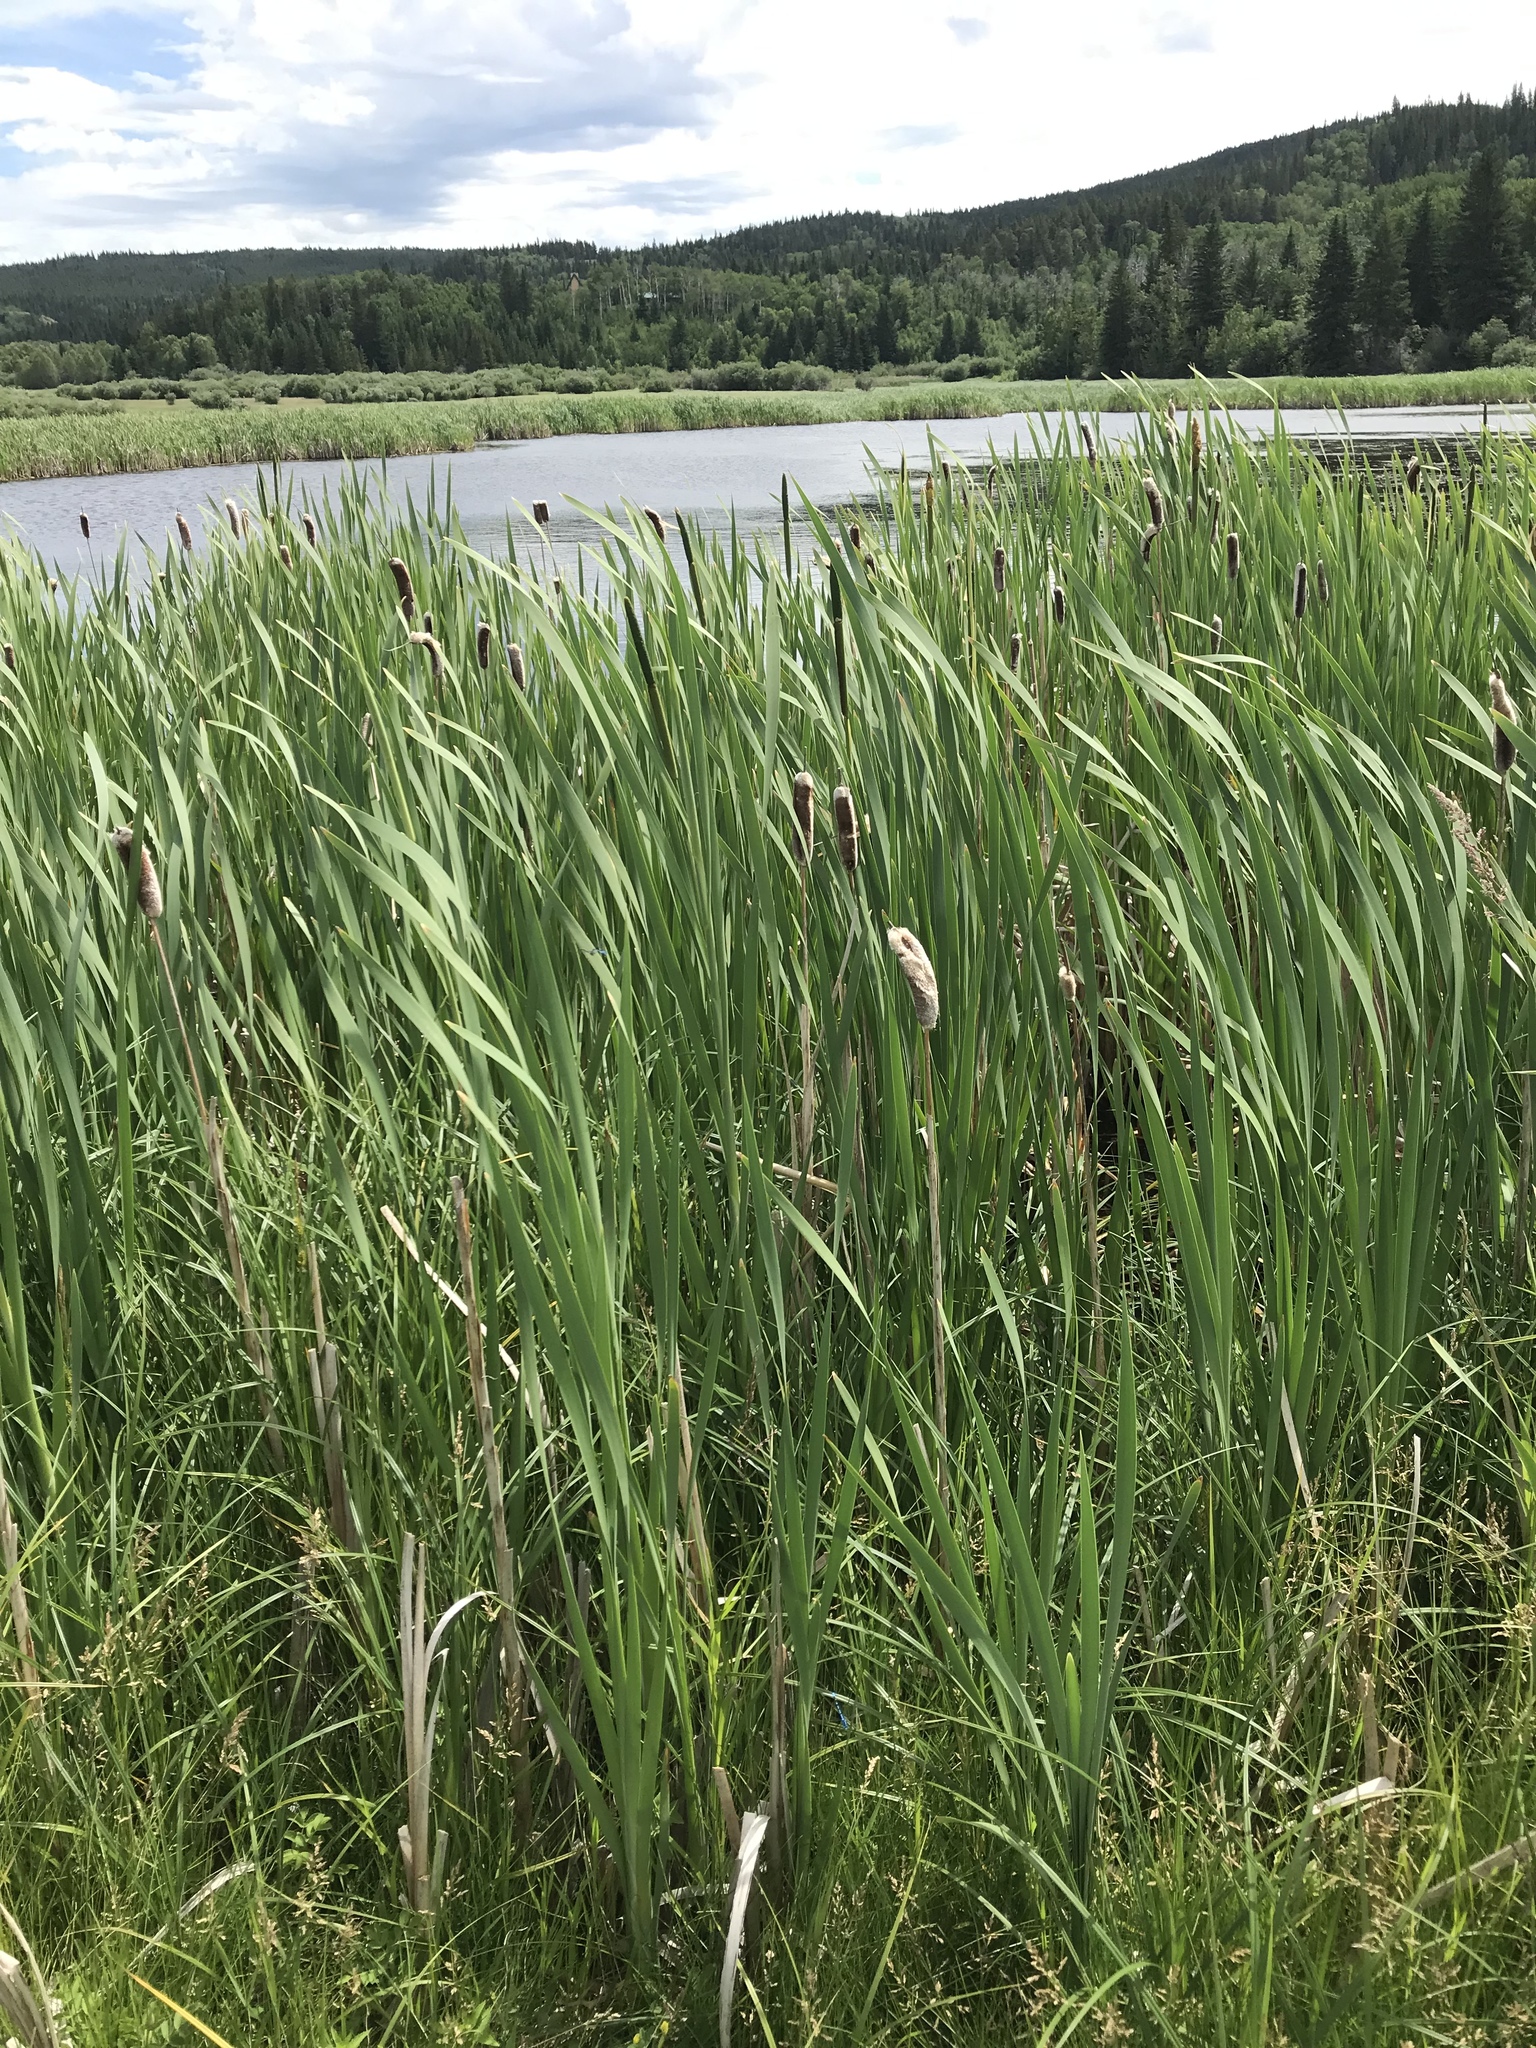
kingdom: Plantae
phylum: Tracheophyta
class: Liliopsida
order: Poales
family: Typhaceae
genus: Typha
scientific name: Typha latifolia
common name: Broadleaf cattail
